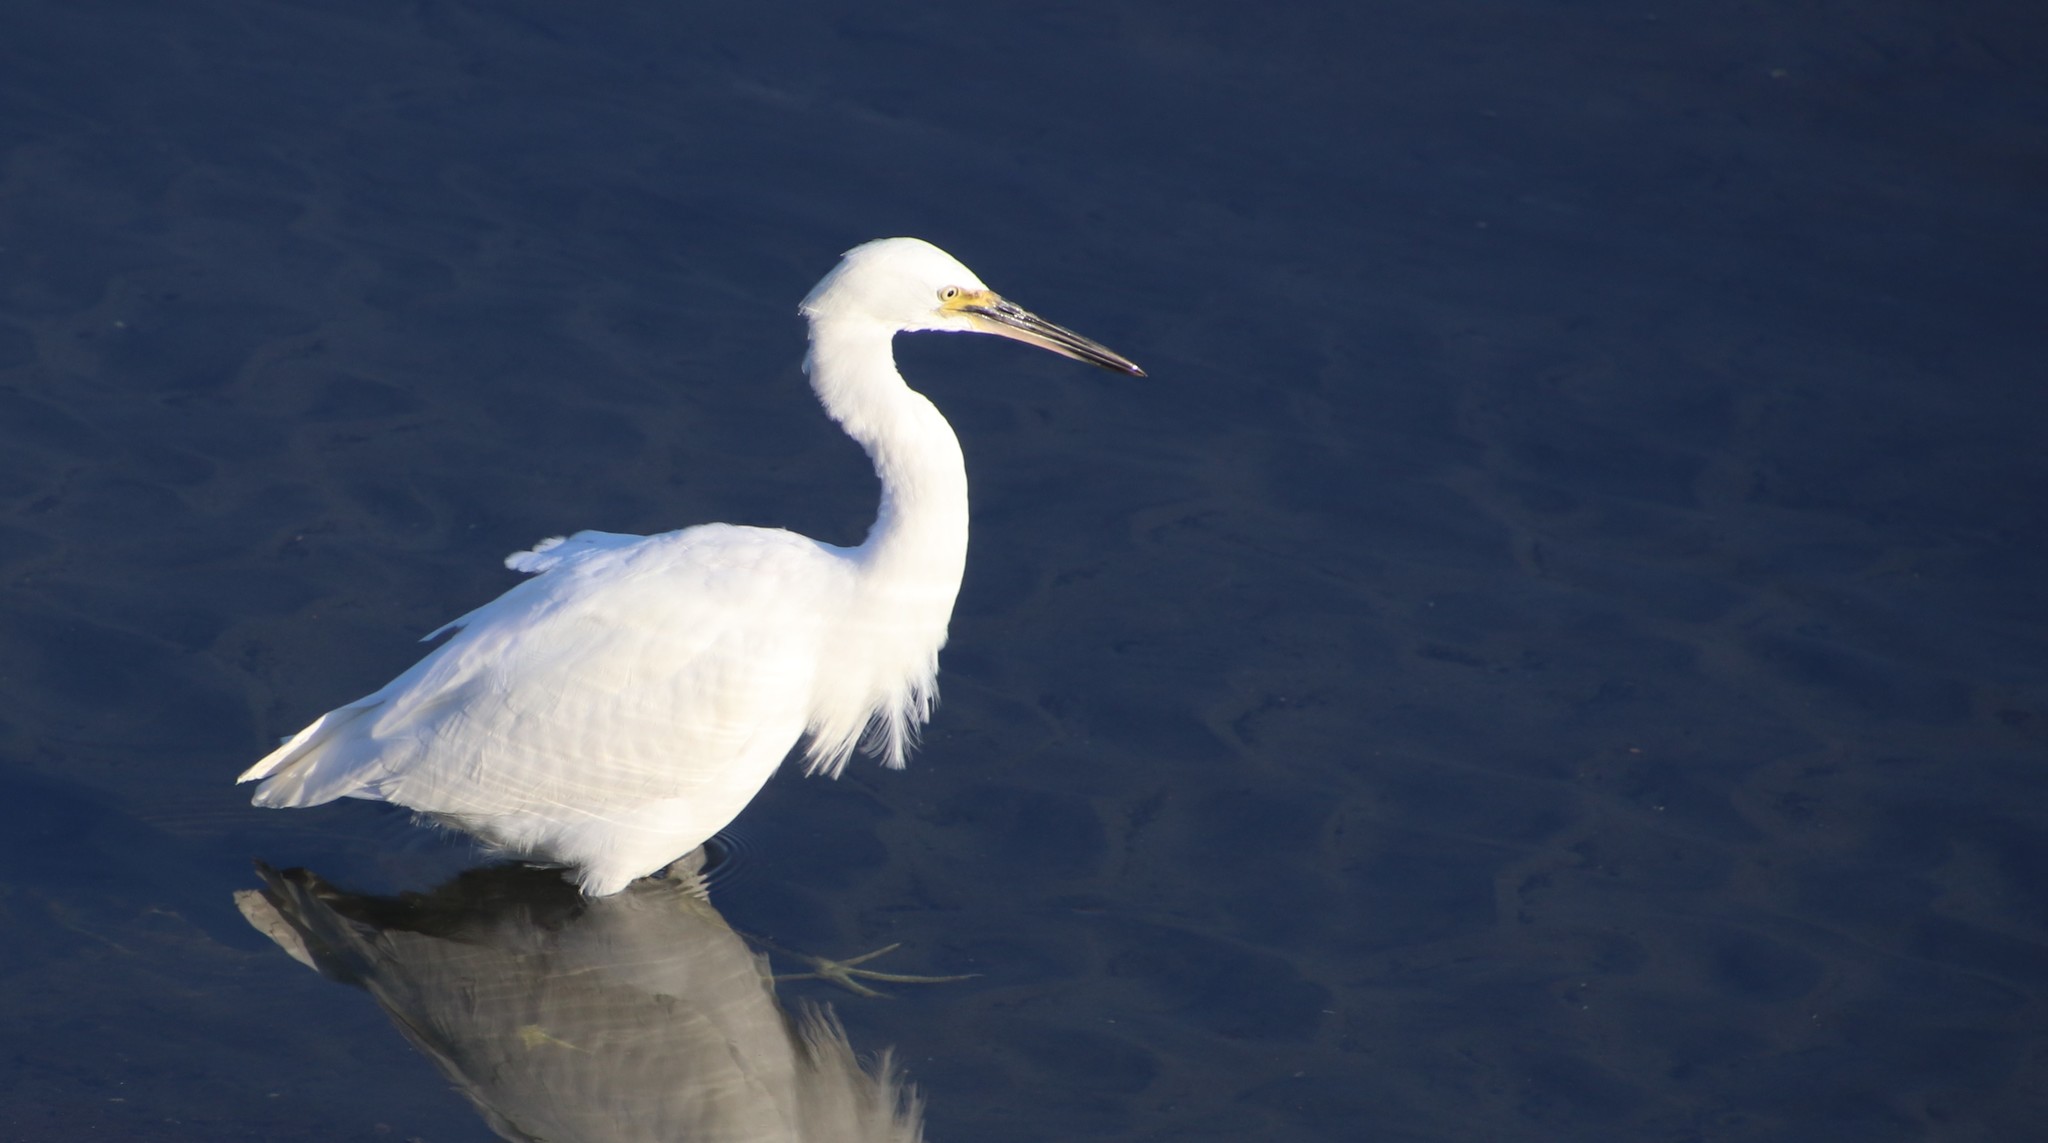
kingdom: Animalia
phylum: Chordata
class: Aves
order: Pelecaniformes
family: Ardeidae
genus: Egretta
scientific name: Egretta thula
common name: Snowy egret
